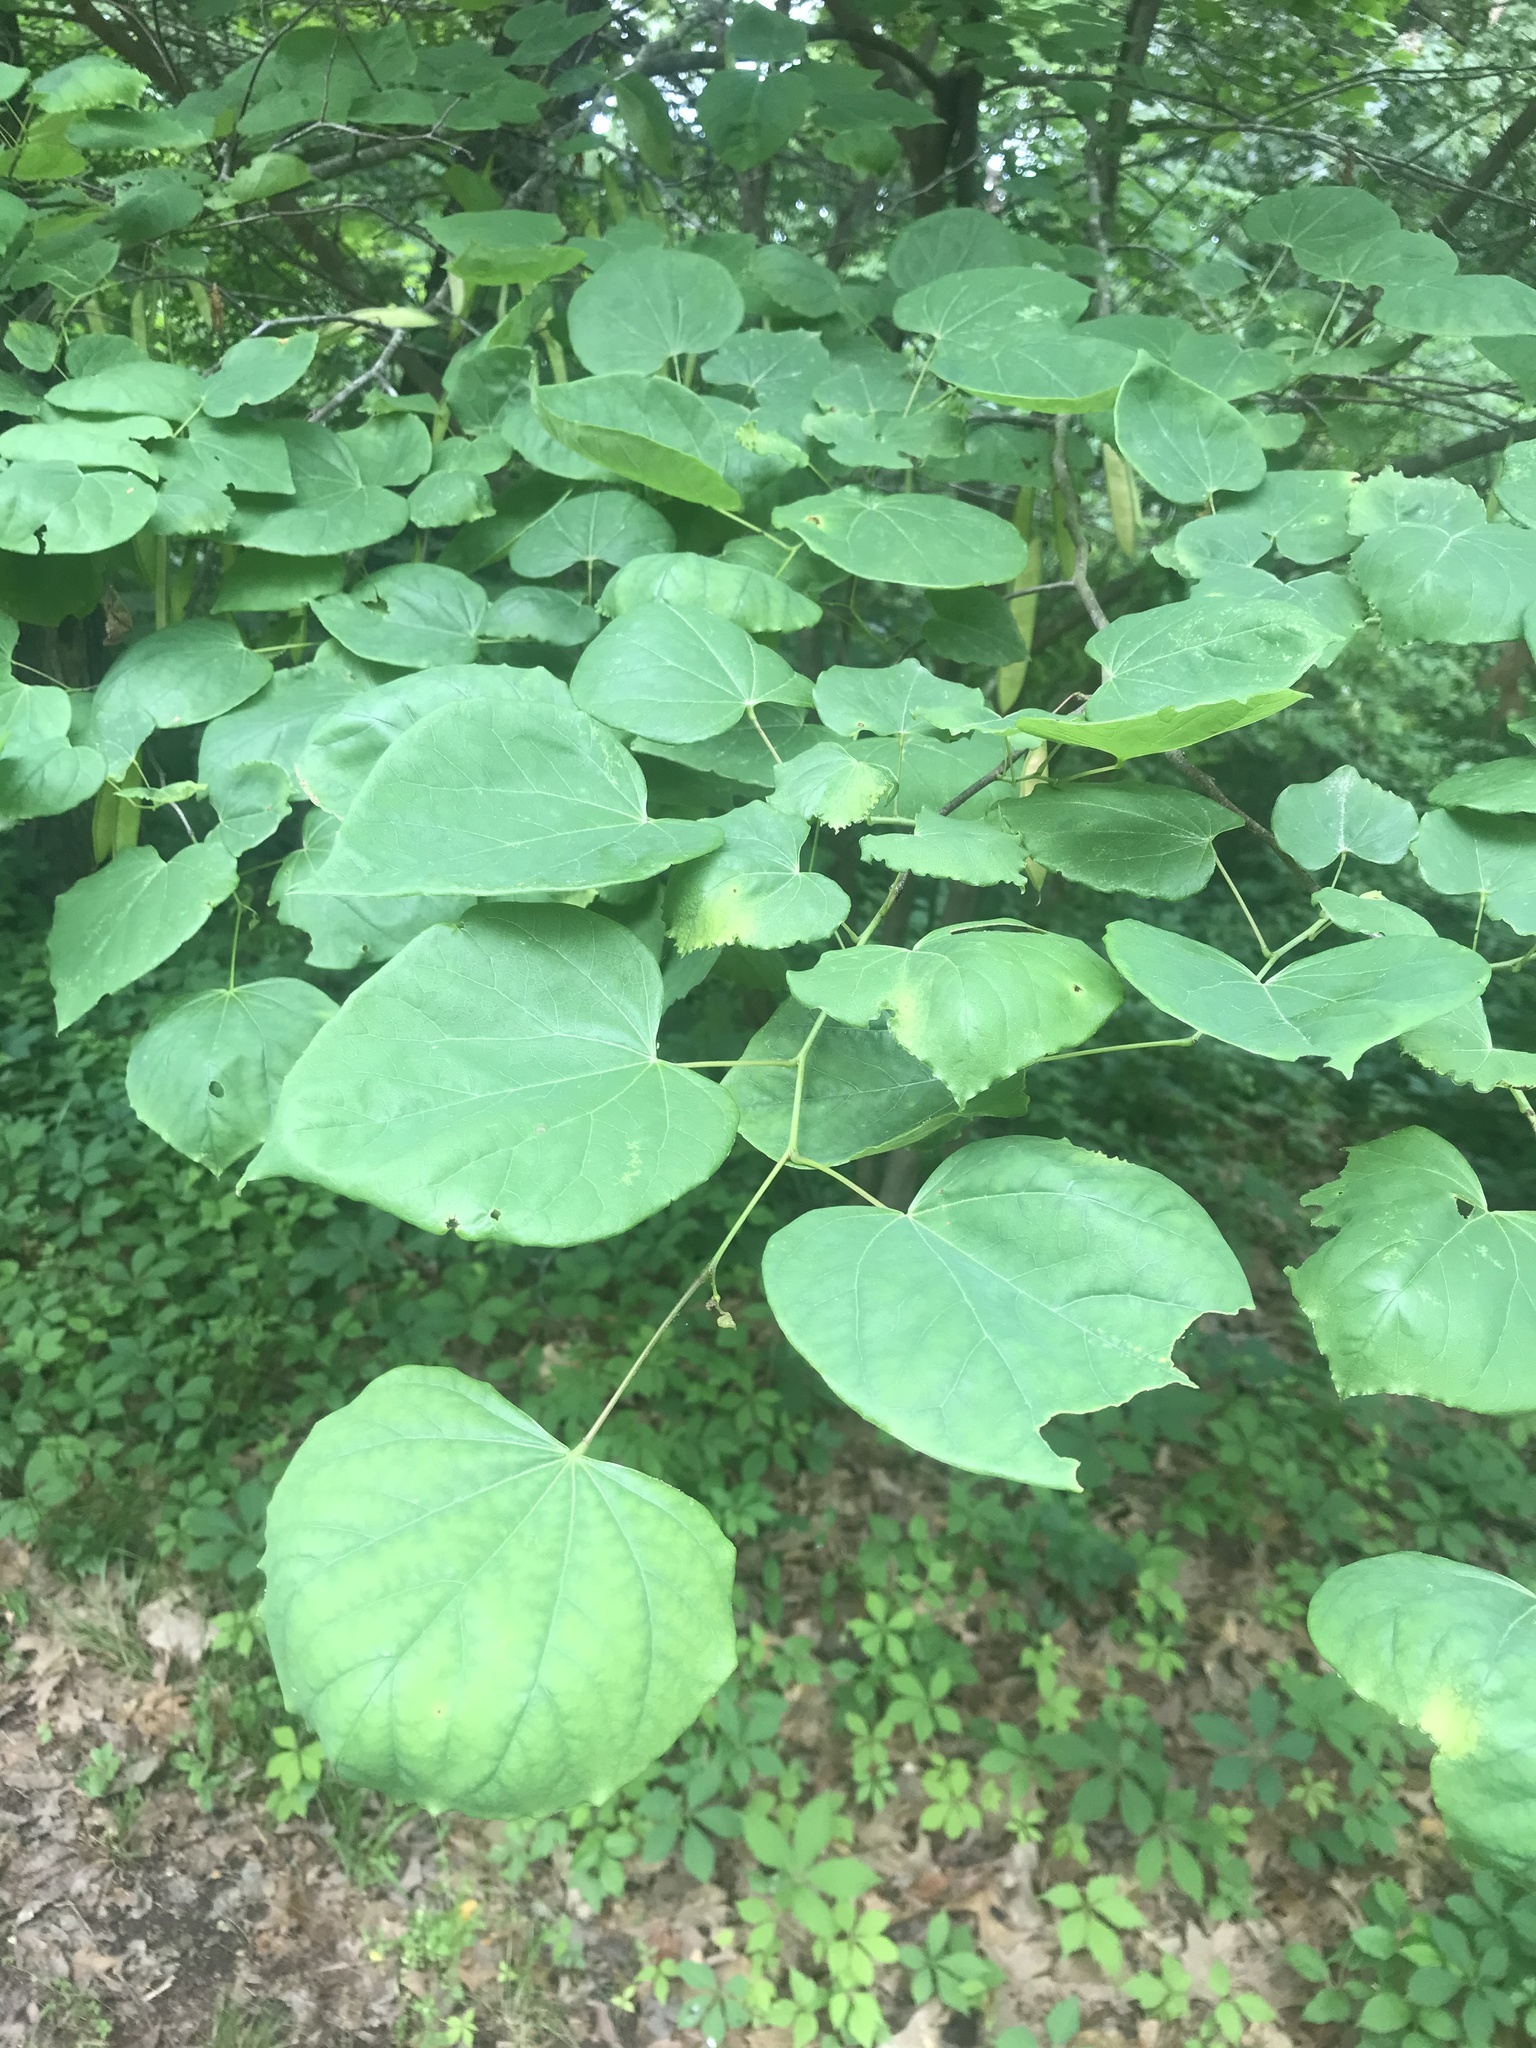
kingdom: Plantae
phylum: Tracheophyta
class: Magnoliopsida
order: Fabales
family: Fabaceae
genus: Cercis
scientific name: Cercis canadensis
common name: Eastern redbud
